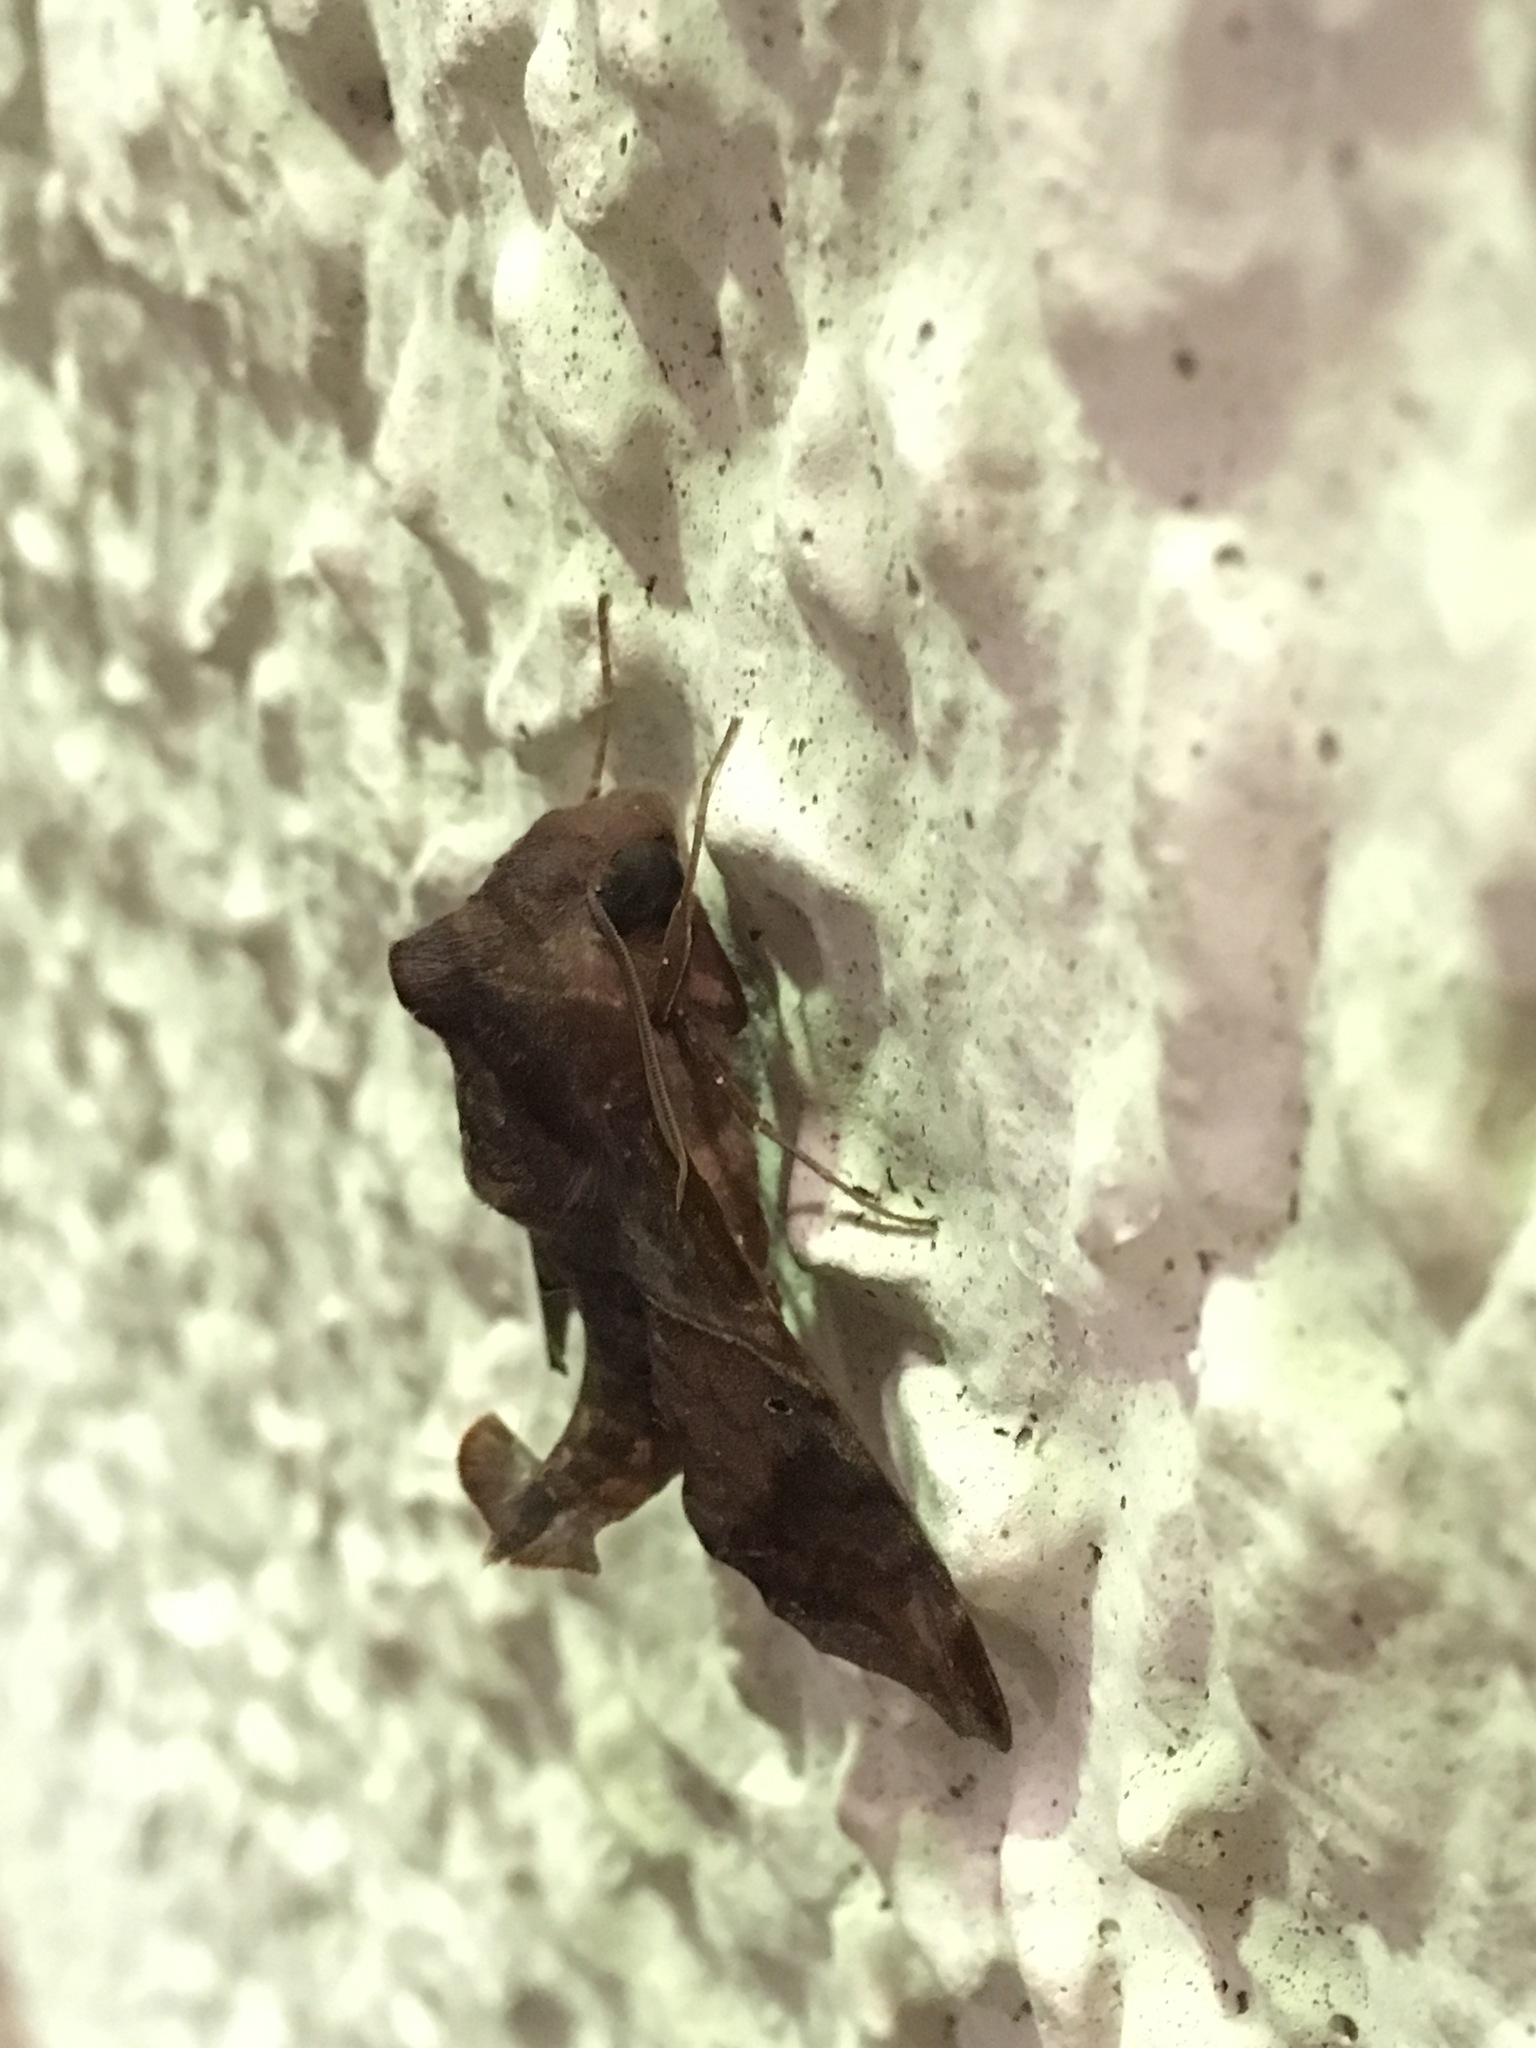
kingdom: Animalia
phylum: Arthropoda
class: Insecta
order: Lepidoptera
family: Sphingidae
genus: Enyo
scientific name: Enyo lugubris
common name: Mournful sphinx
